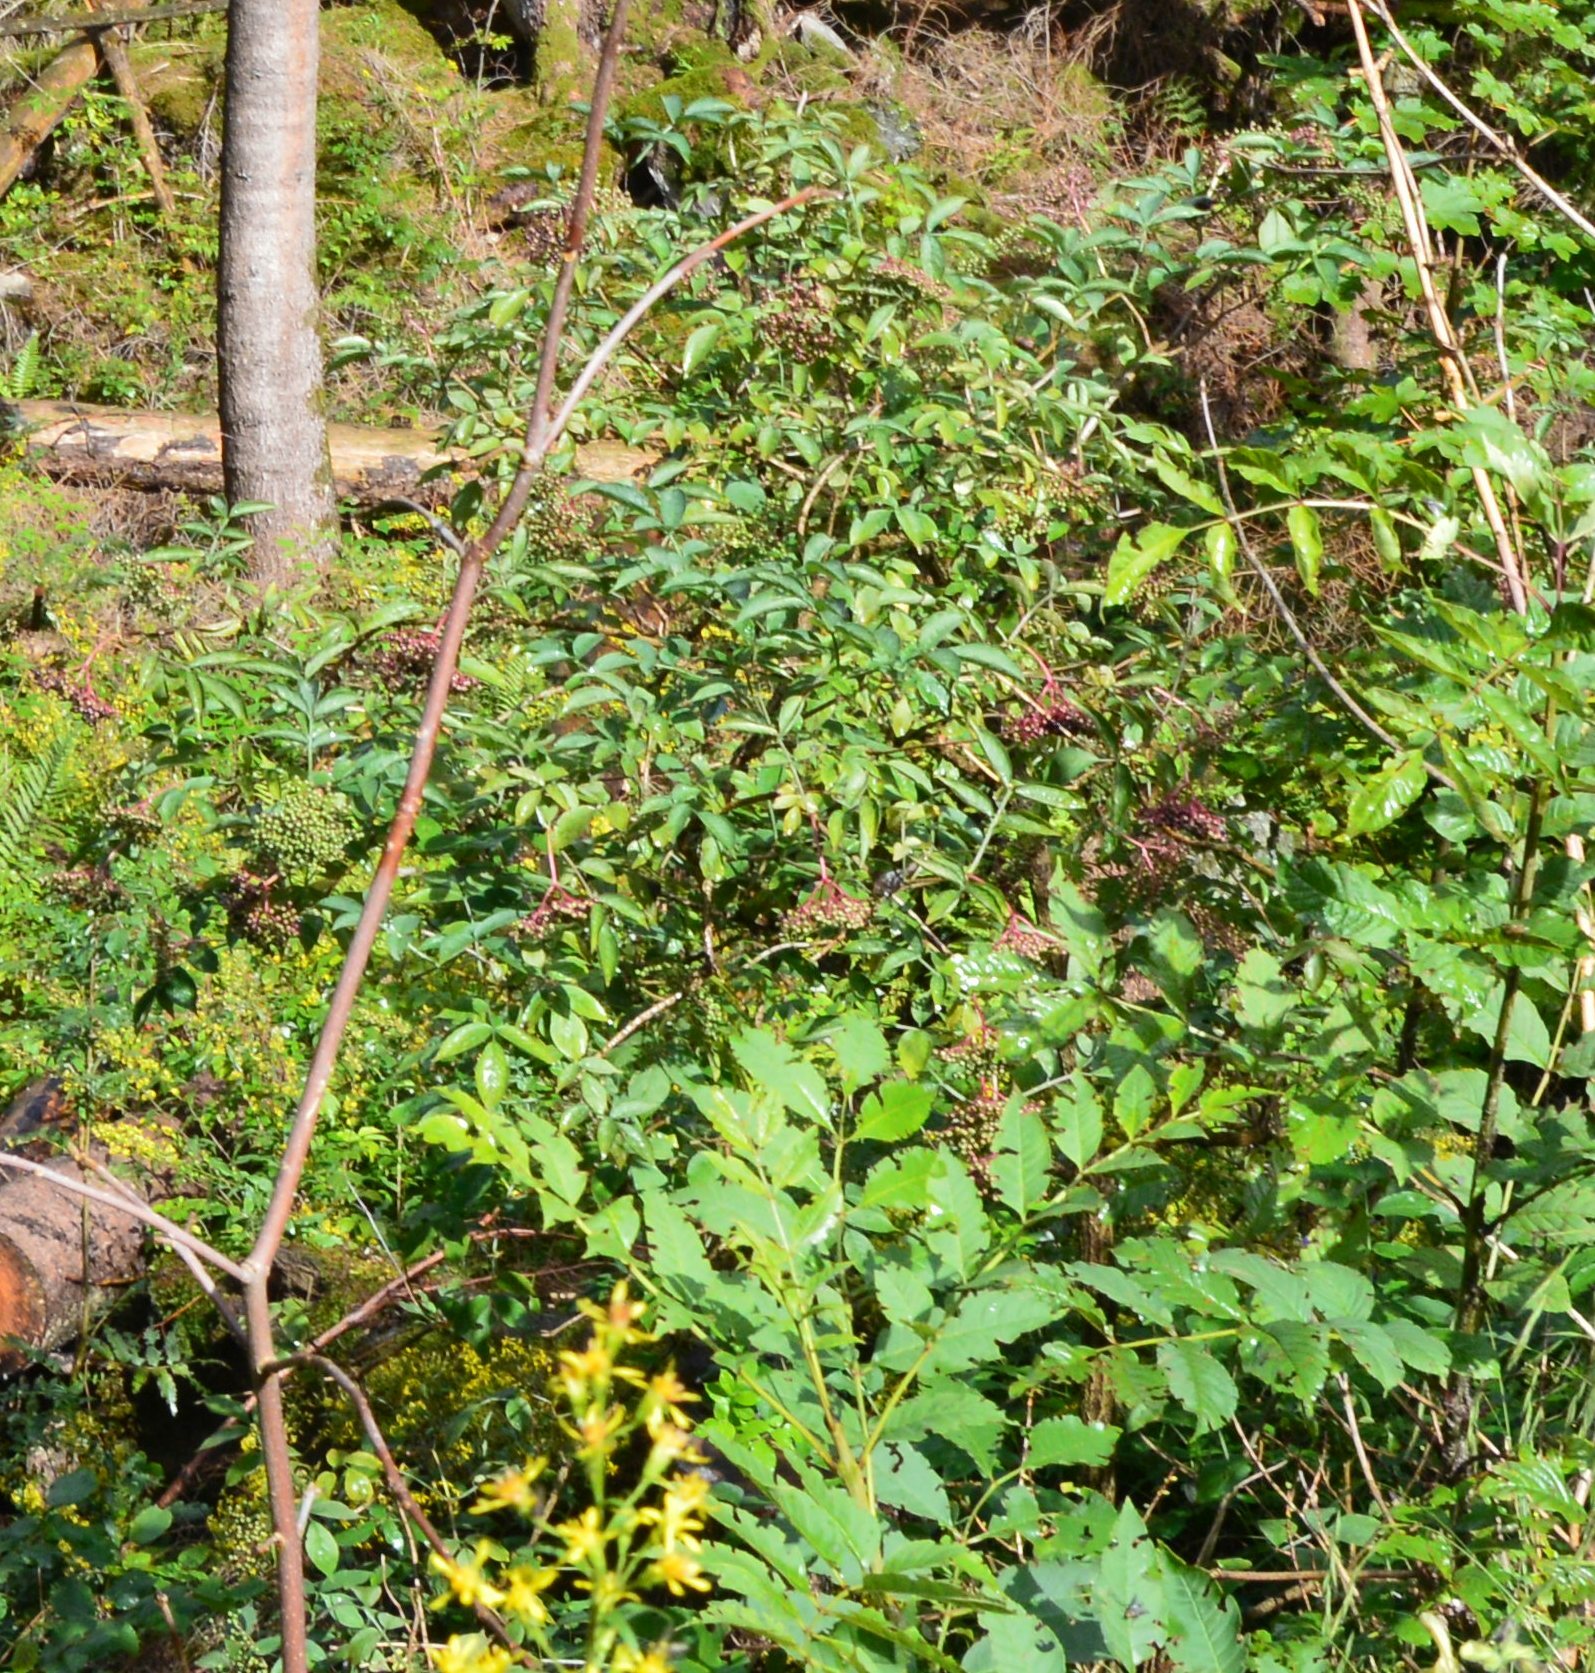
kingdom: Plantae
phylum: Tracheophyta
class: Magnoliopsida
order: Dipsacales
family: Viburnaceae
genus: Sambucus
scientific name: Sambucus nigra
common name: Elder
